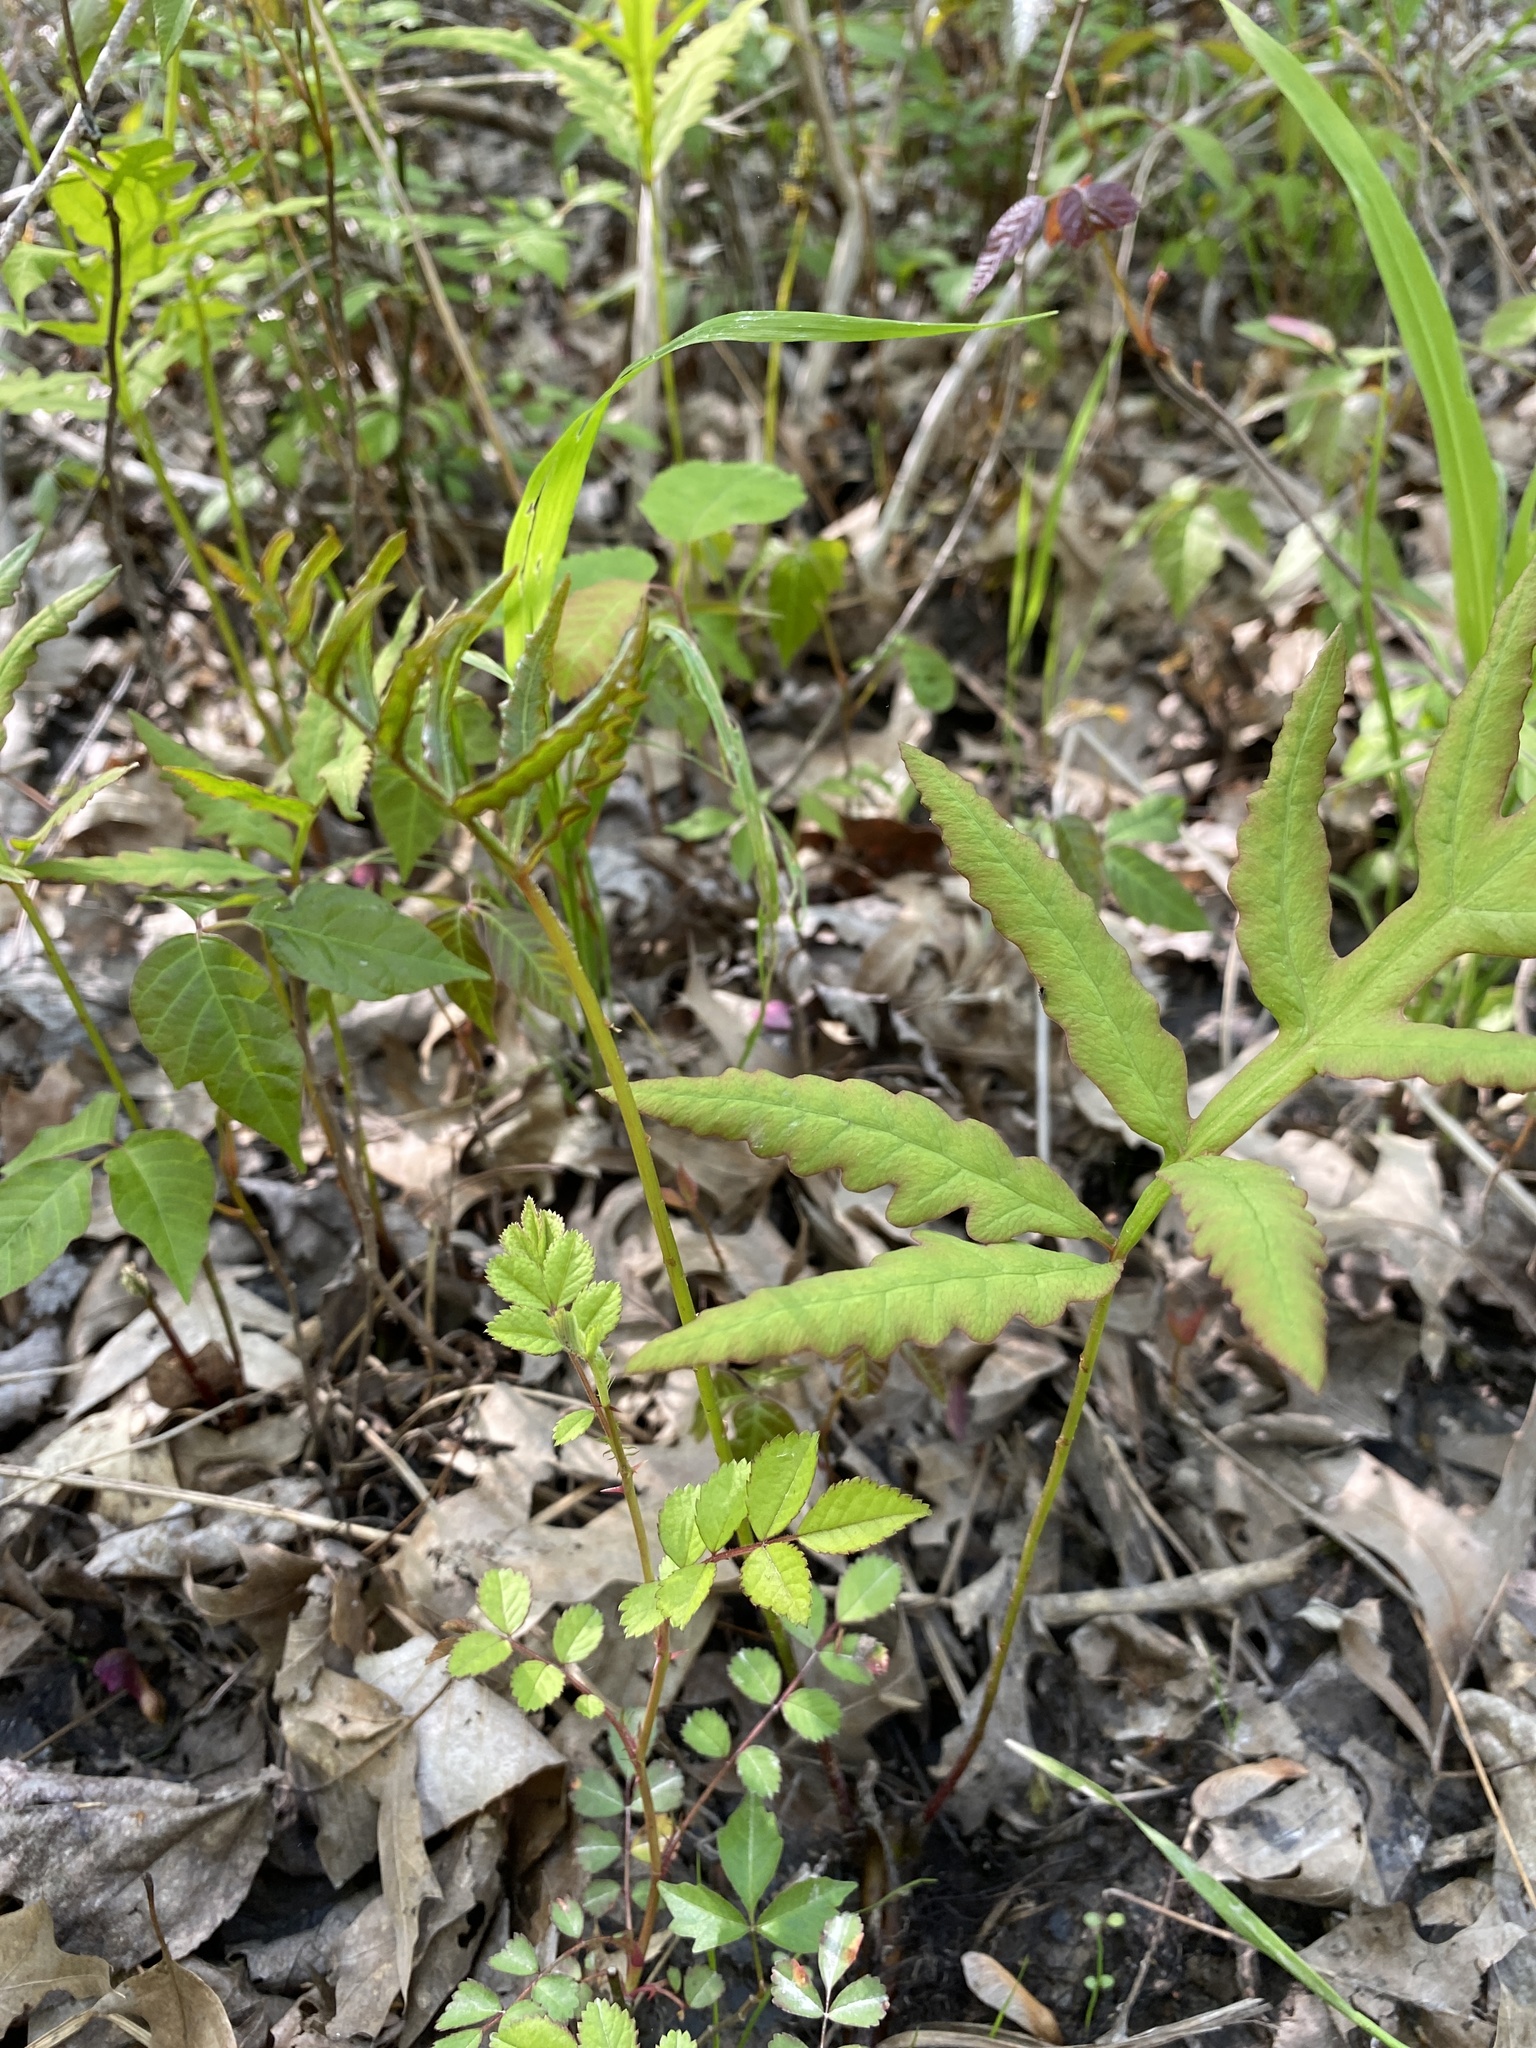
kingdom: Plantae
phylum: Tracheophyta
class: Polypodiopsida
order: Polypodiales
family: Onocleaceae
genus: Onoclea
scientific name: Onoclea sensibilis
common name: Sensitive fern
